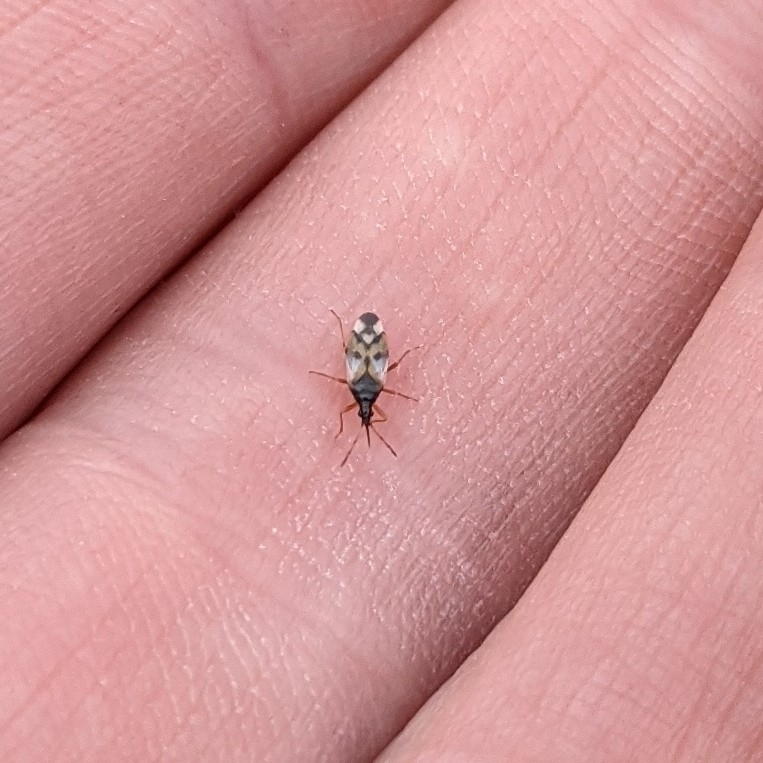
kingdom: Animalia
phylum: Arthropoda
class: Insecta
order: Hemiptera
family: Anthocoridae
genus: Anthocoris
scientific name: Anthocoris nemorum
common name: Minute pirate bug
